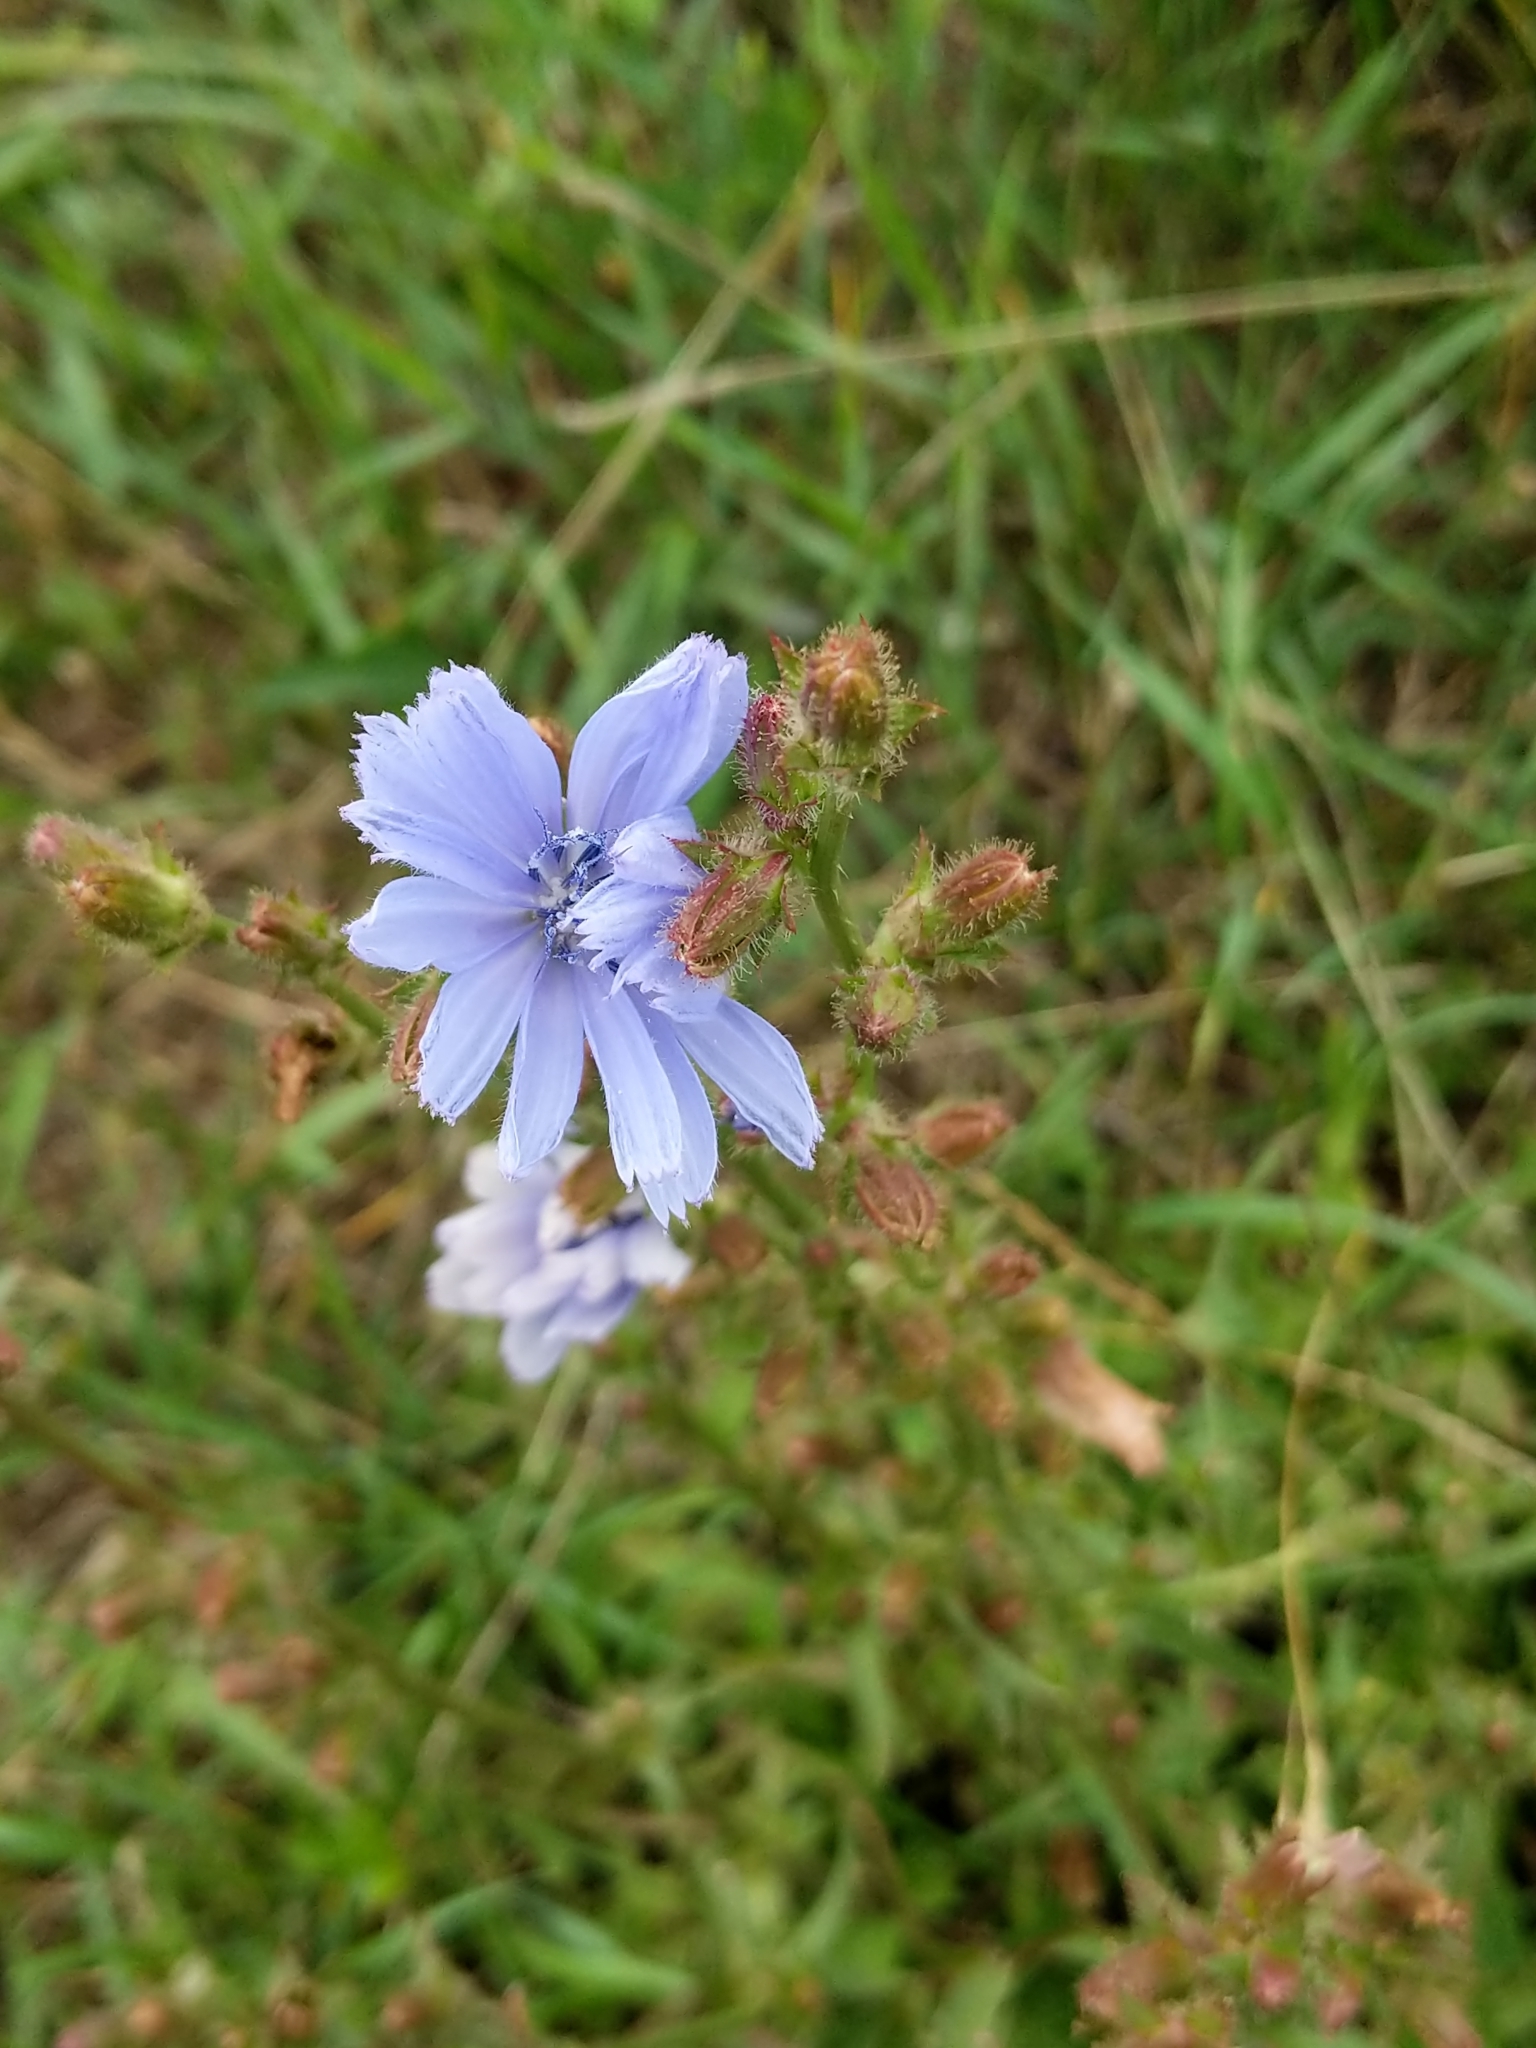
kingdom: Plantae
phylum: Tracheophyta
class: Magnoliopsida
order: Asterales
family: Asteraceae
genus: Cichorium
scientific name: Cichorium intybus
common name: Chicory
